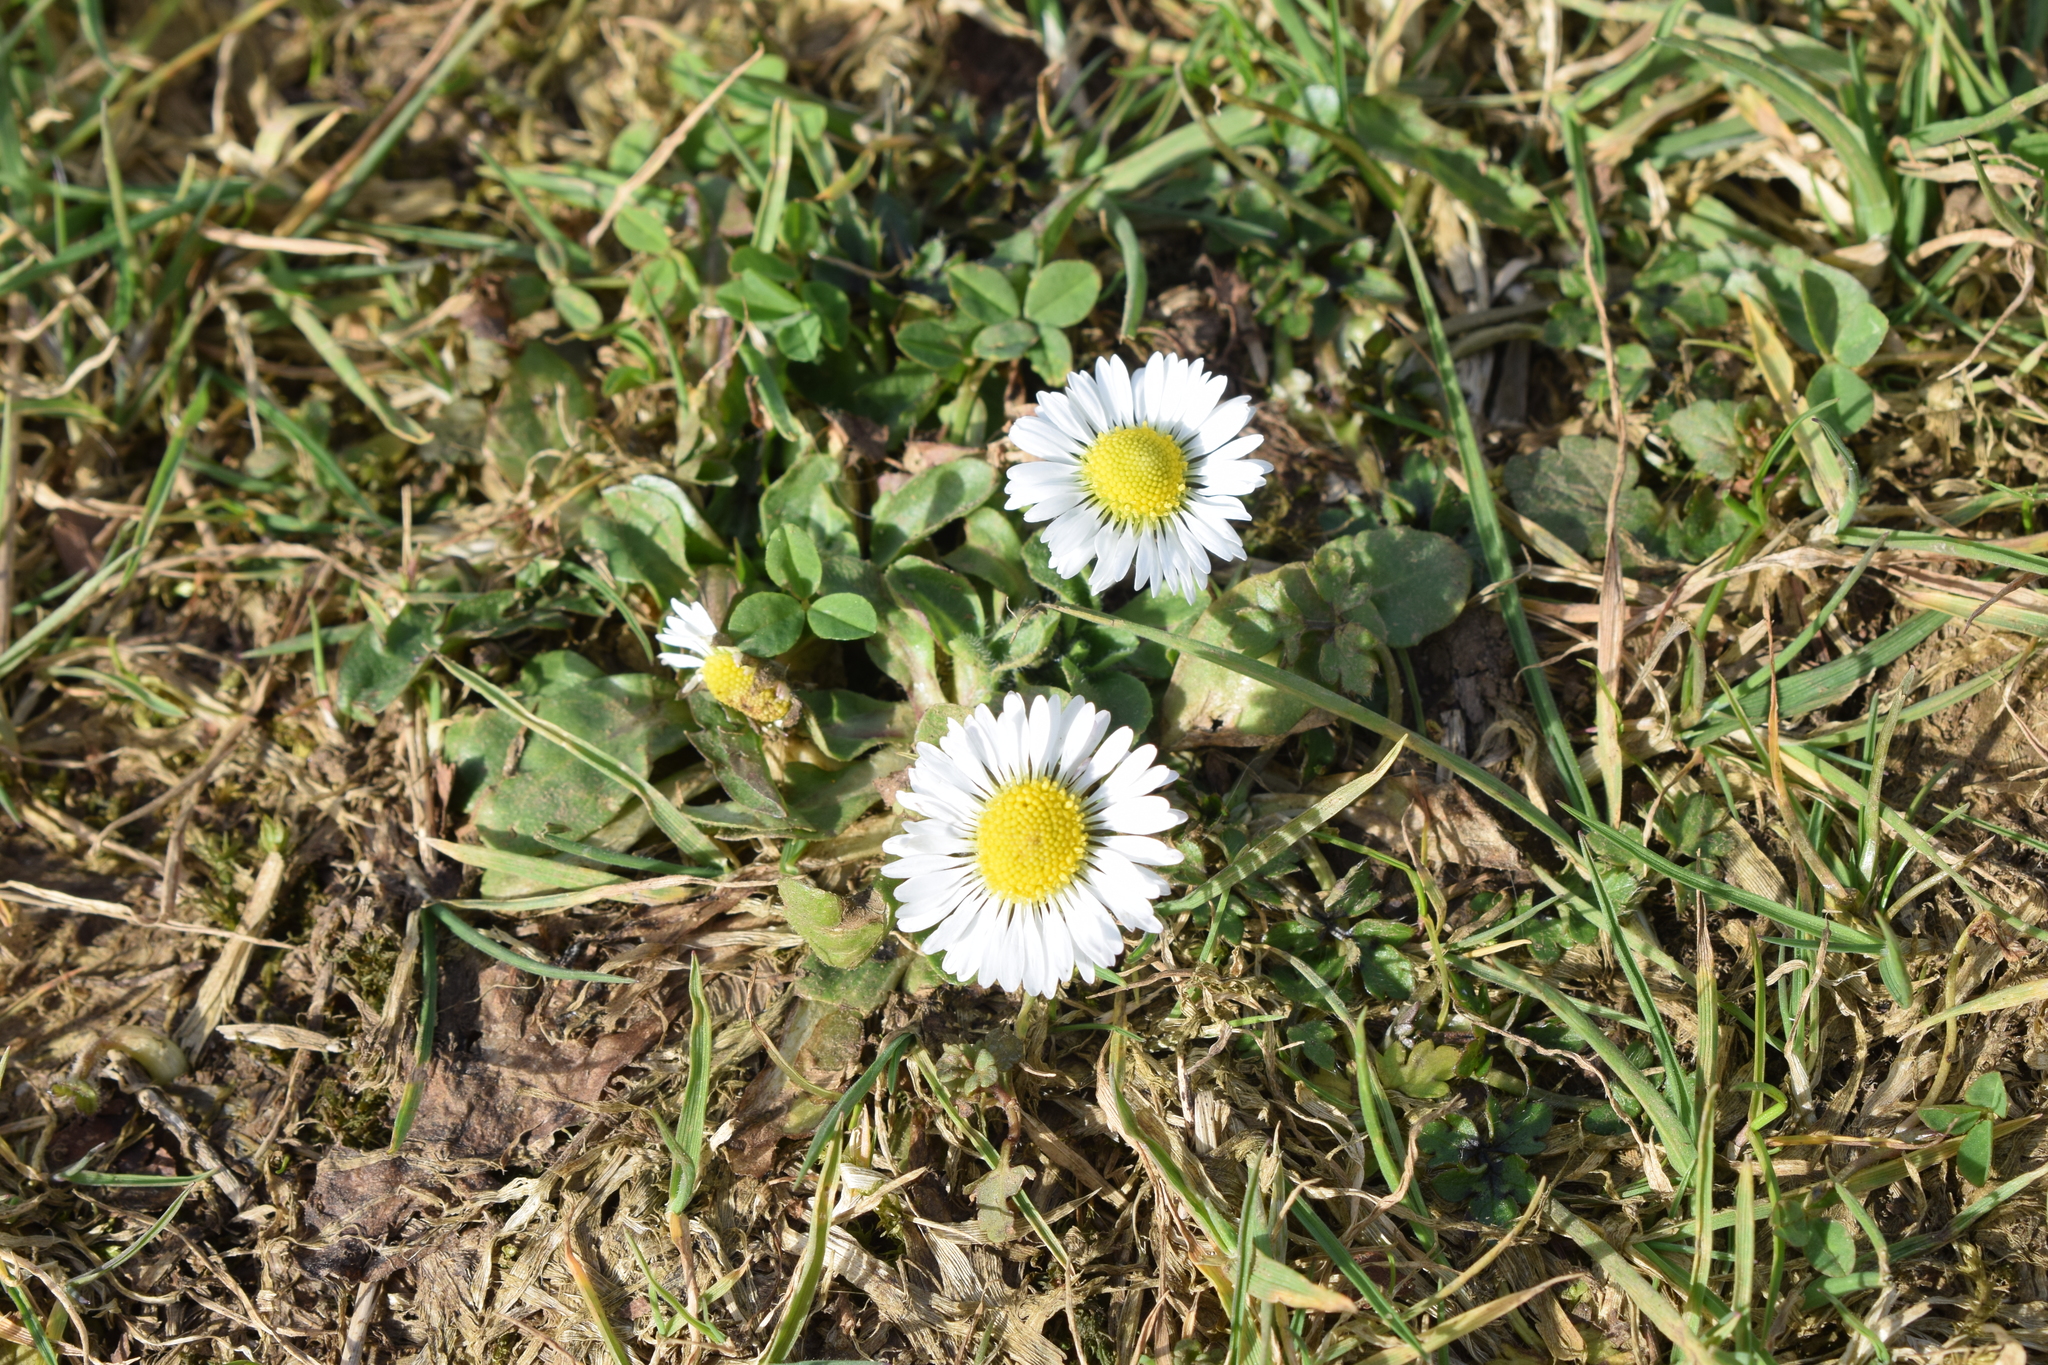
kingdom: Plantae
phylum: Tracheophyta
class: Magnoliopsida
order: Asterales
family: Asteraceae
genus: Bellis
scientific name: Bellis perennis
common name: Lawndaisy
